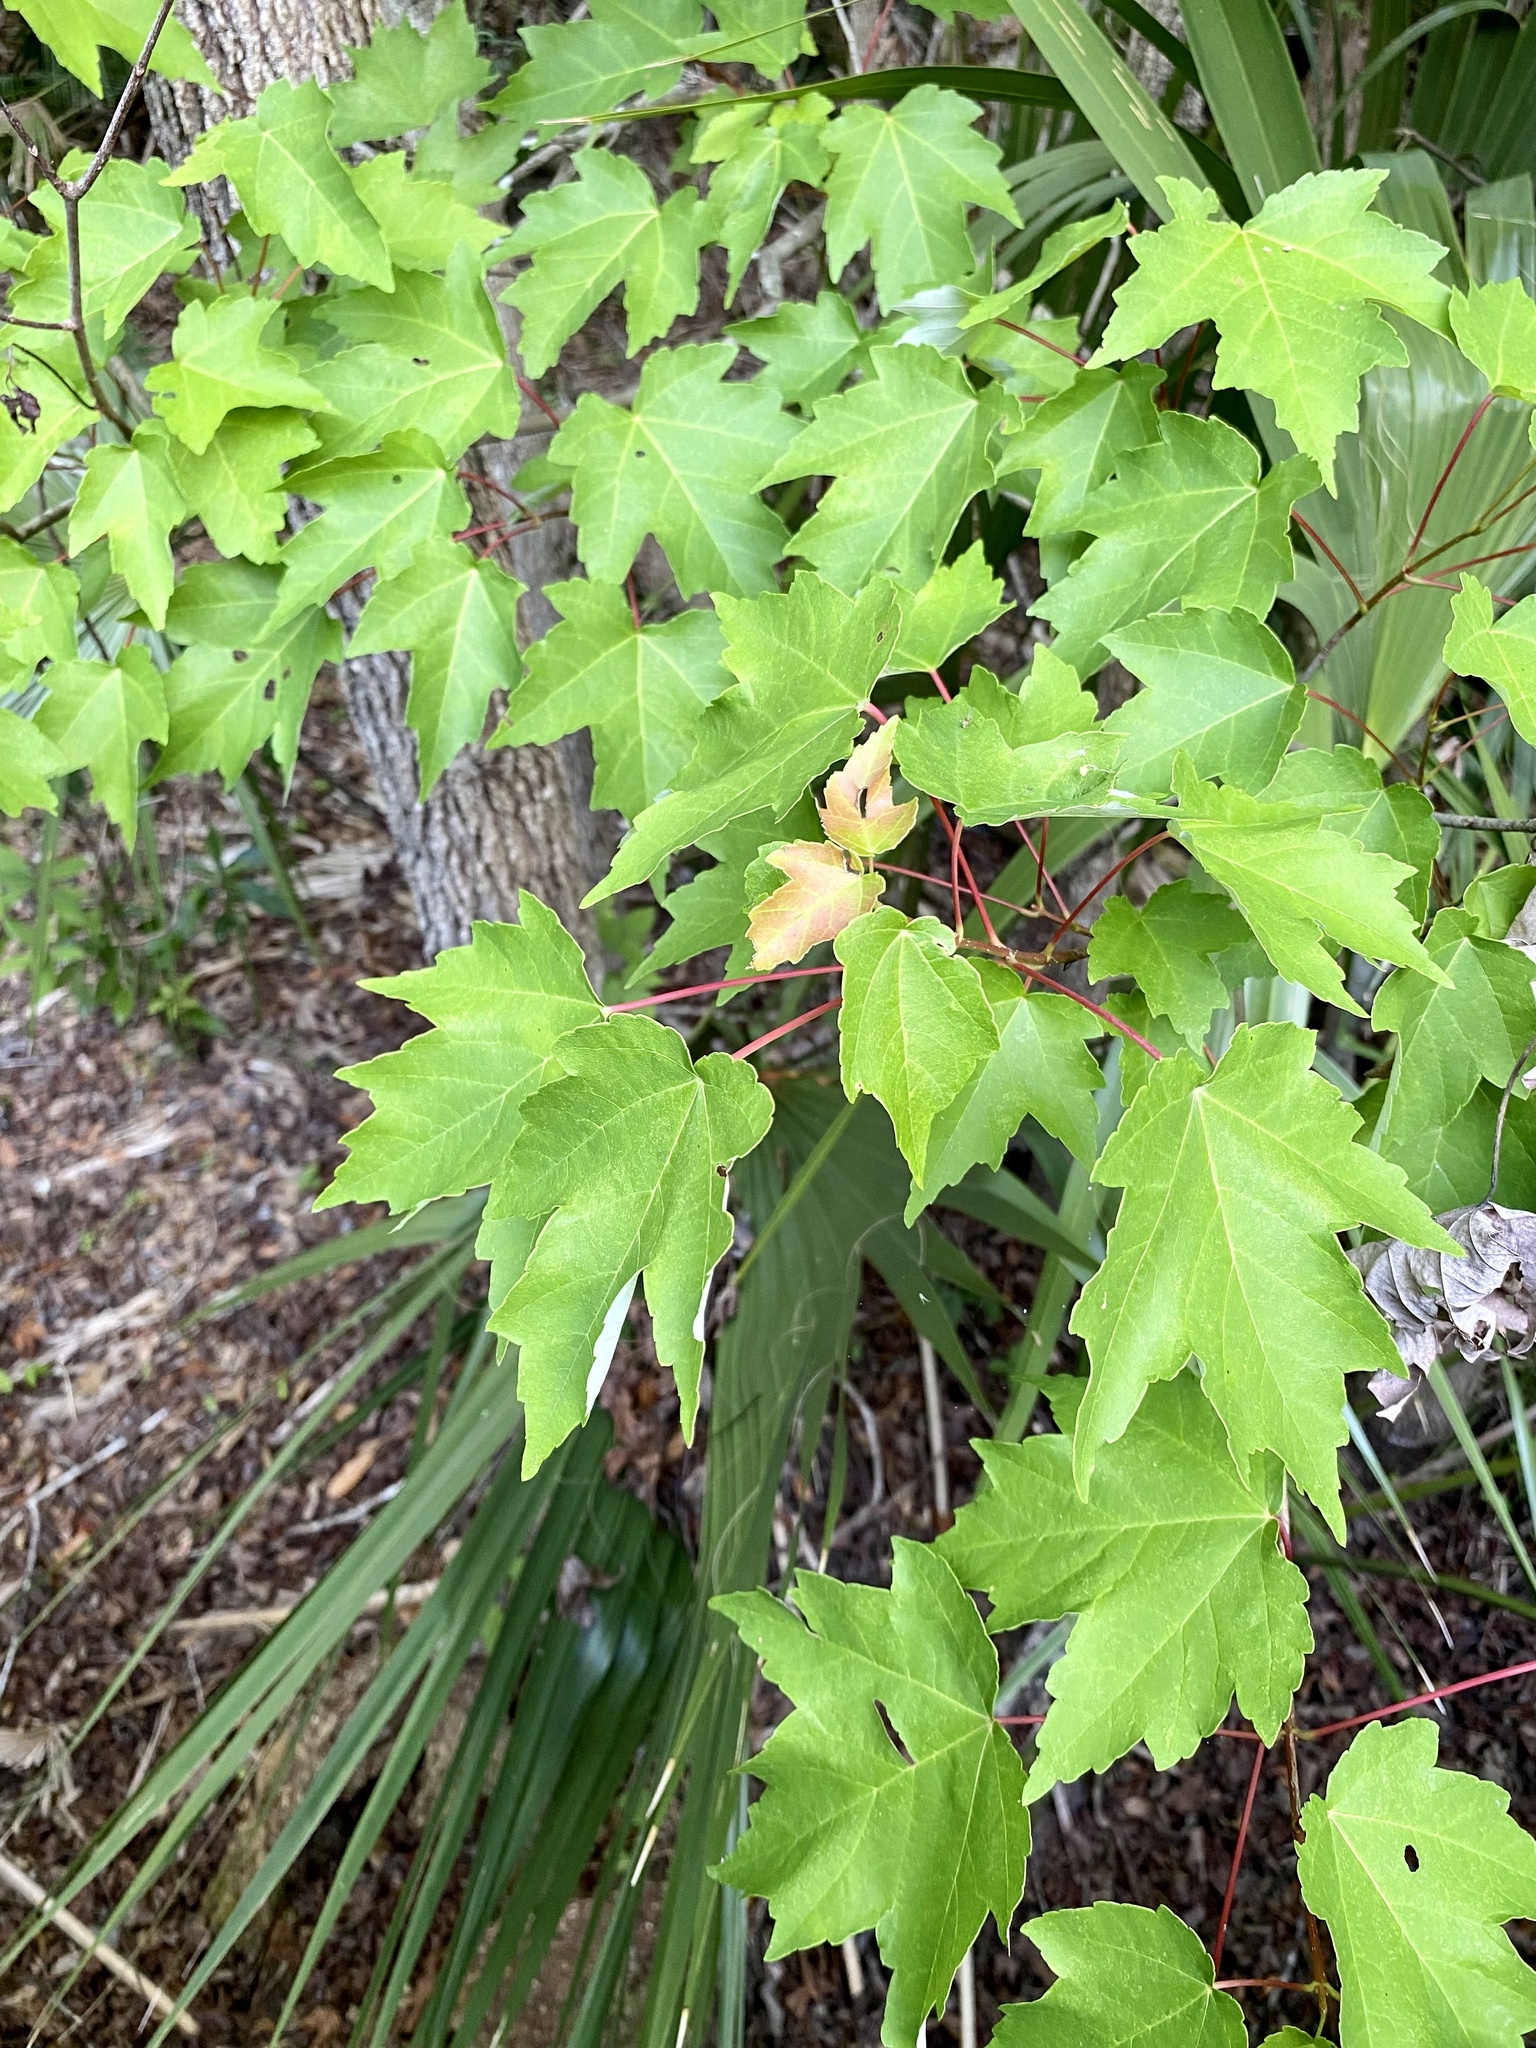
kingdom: Plantae
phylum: Tracheophyta
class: Magnoliopsida
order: Sapindales
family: Sapindaceae
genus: Acer
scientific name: Acer rubrum
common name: Red maple
